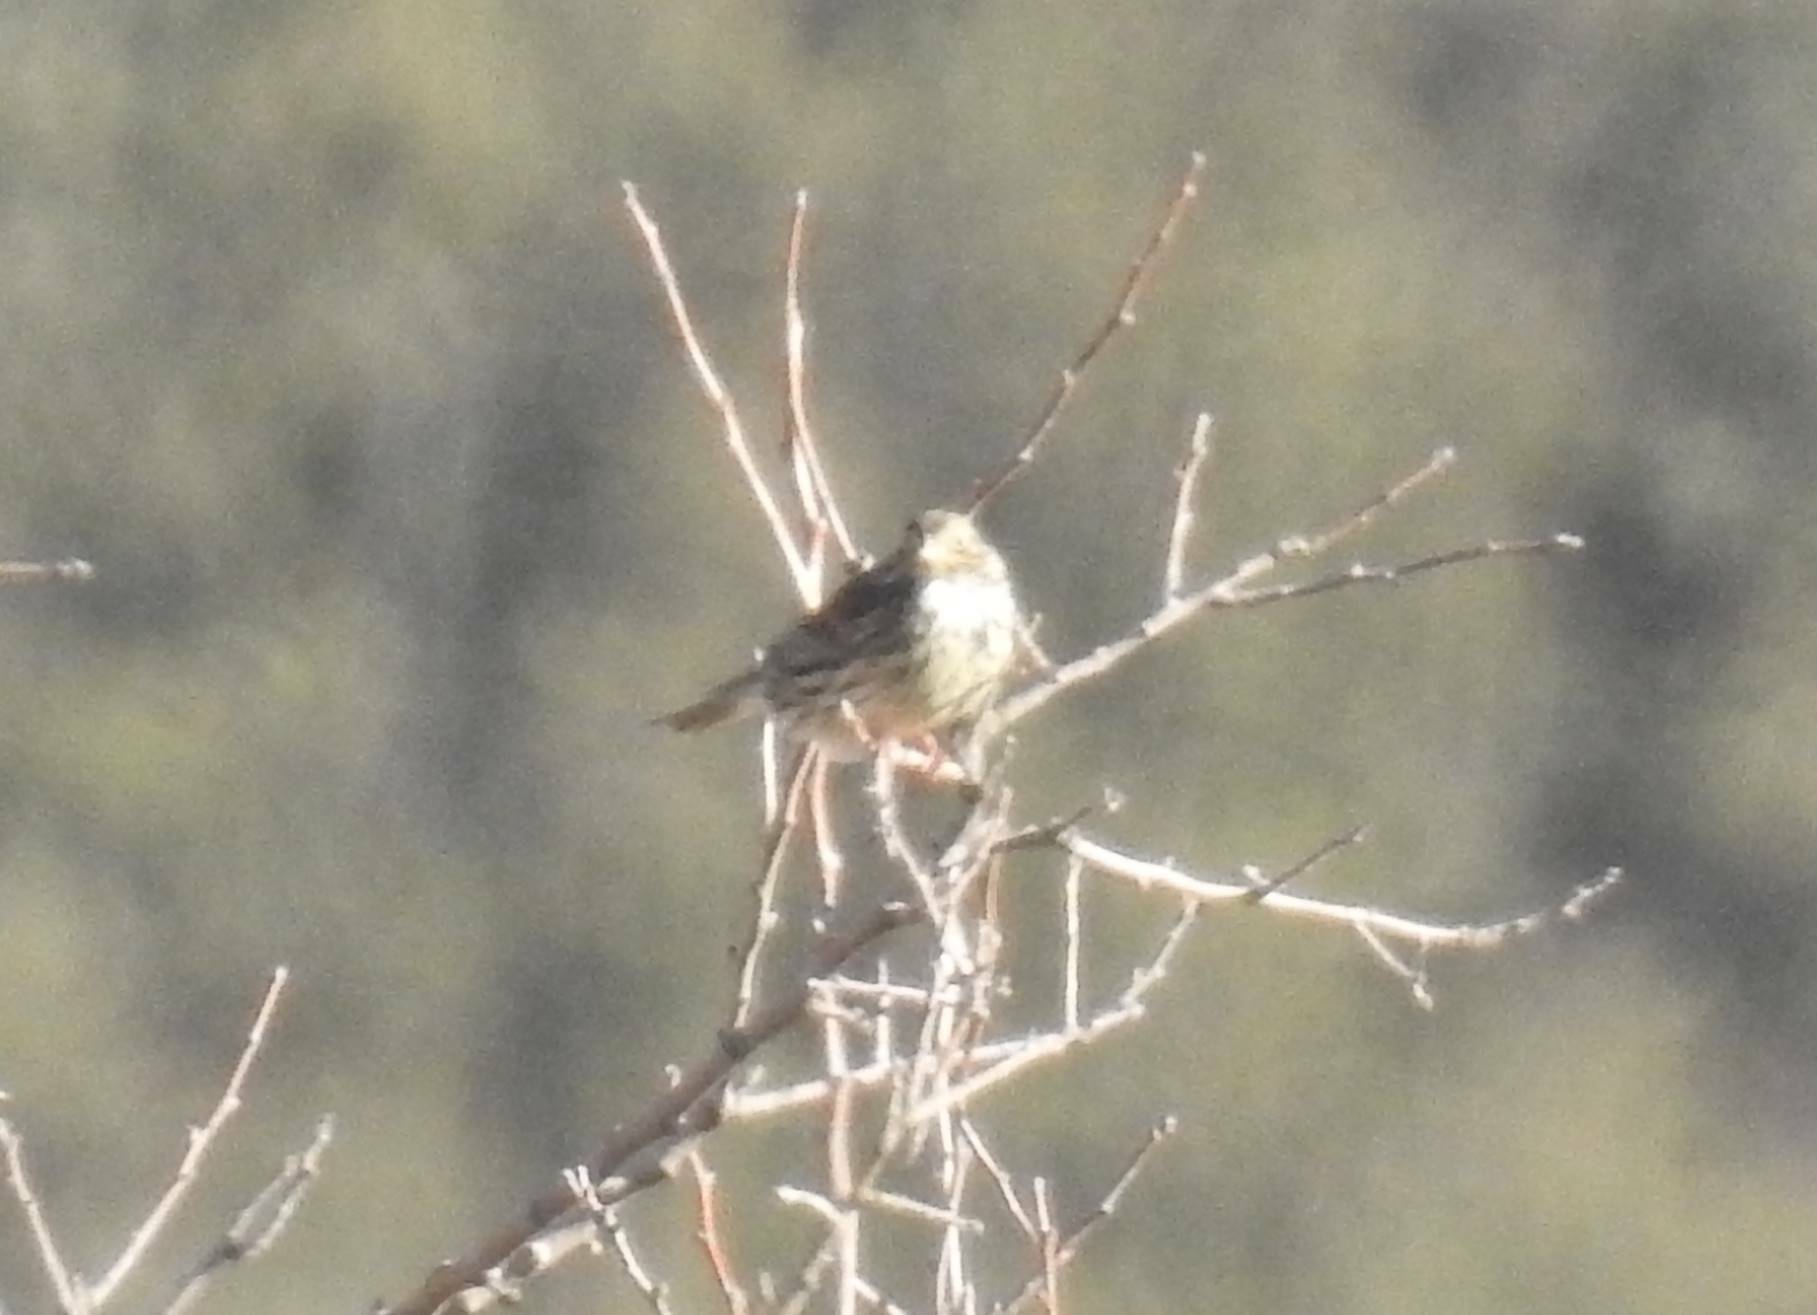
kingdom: Animalia
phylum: Chordata
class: Aves
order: Passeriformes
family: Emberizidae
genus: Emberiza
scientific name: Emberiza calandra
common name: Corn bunting
